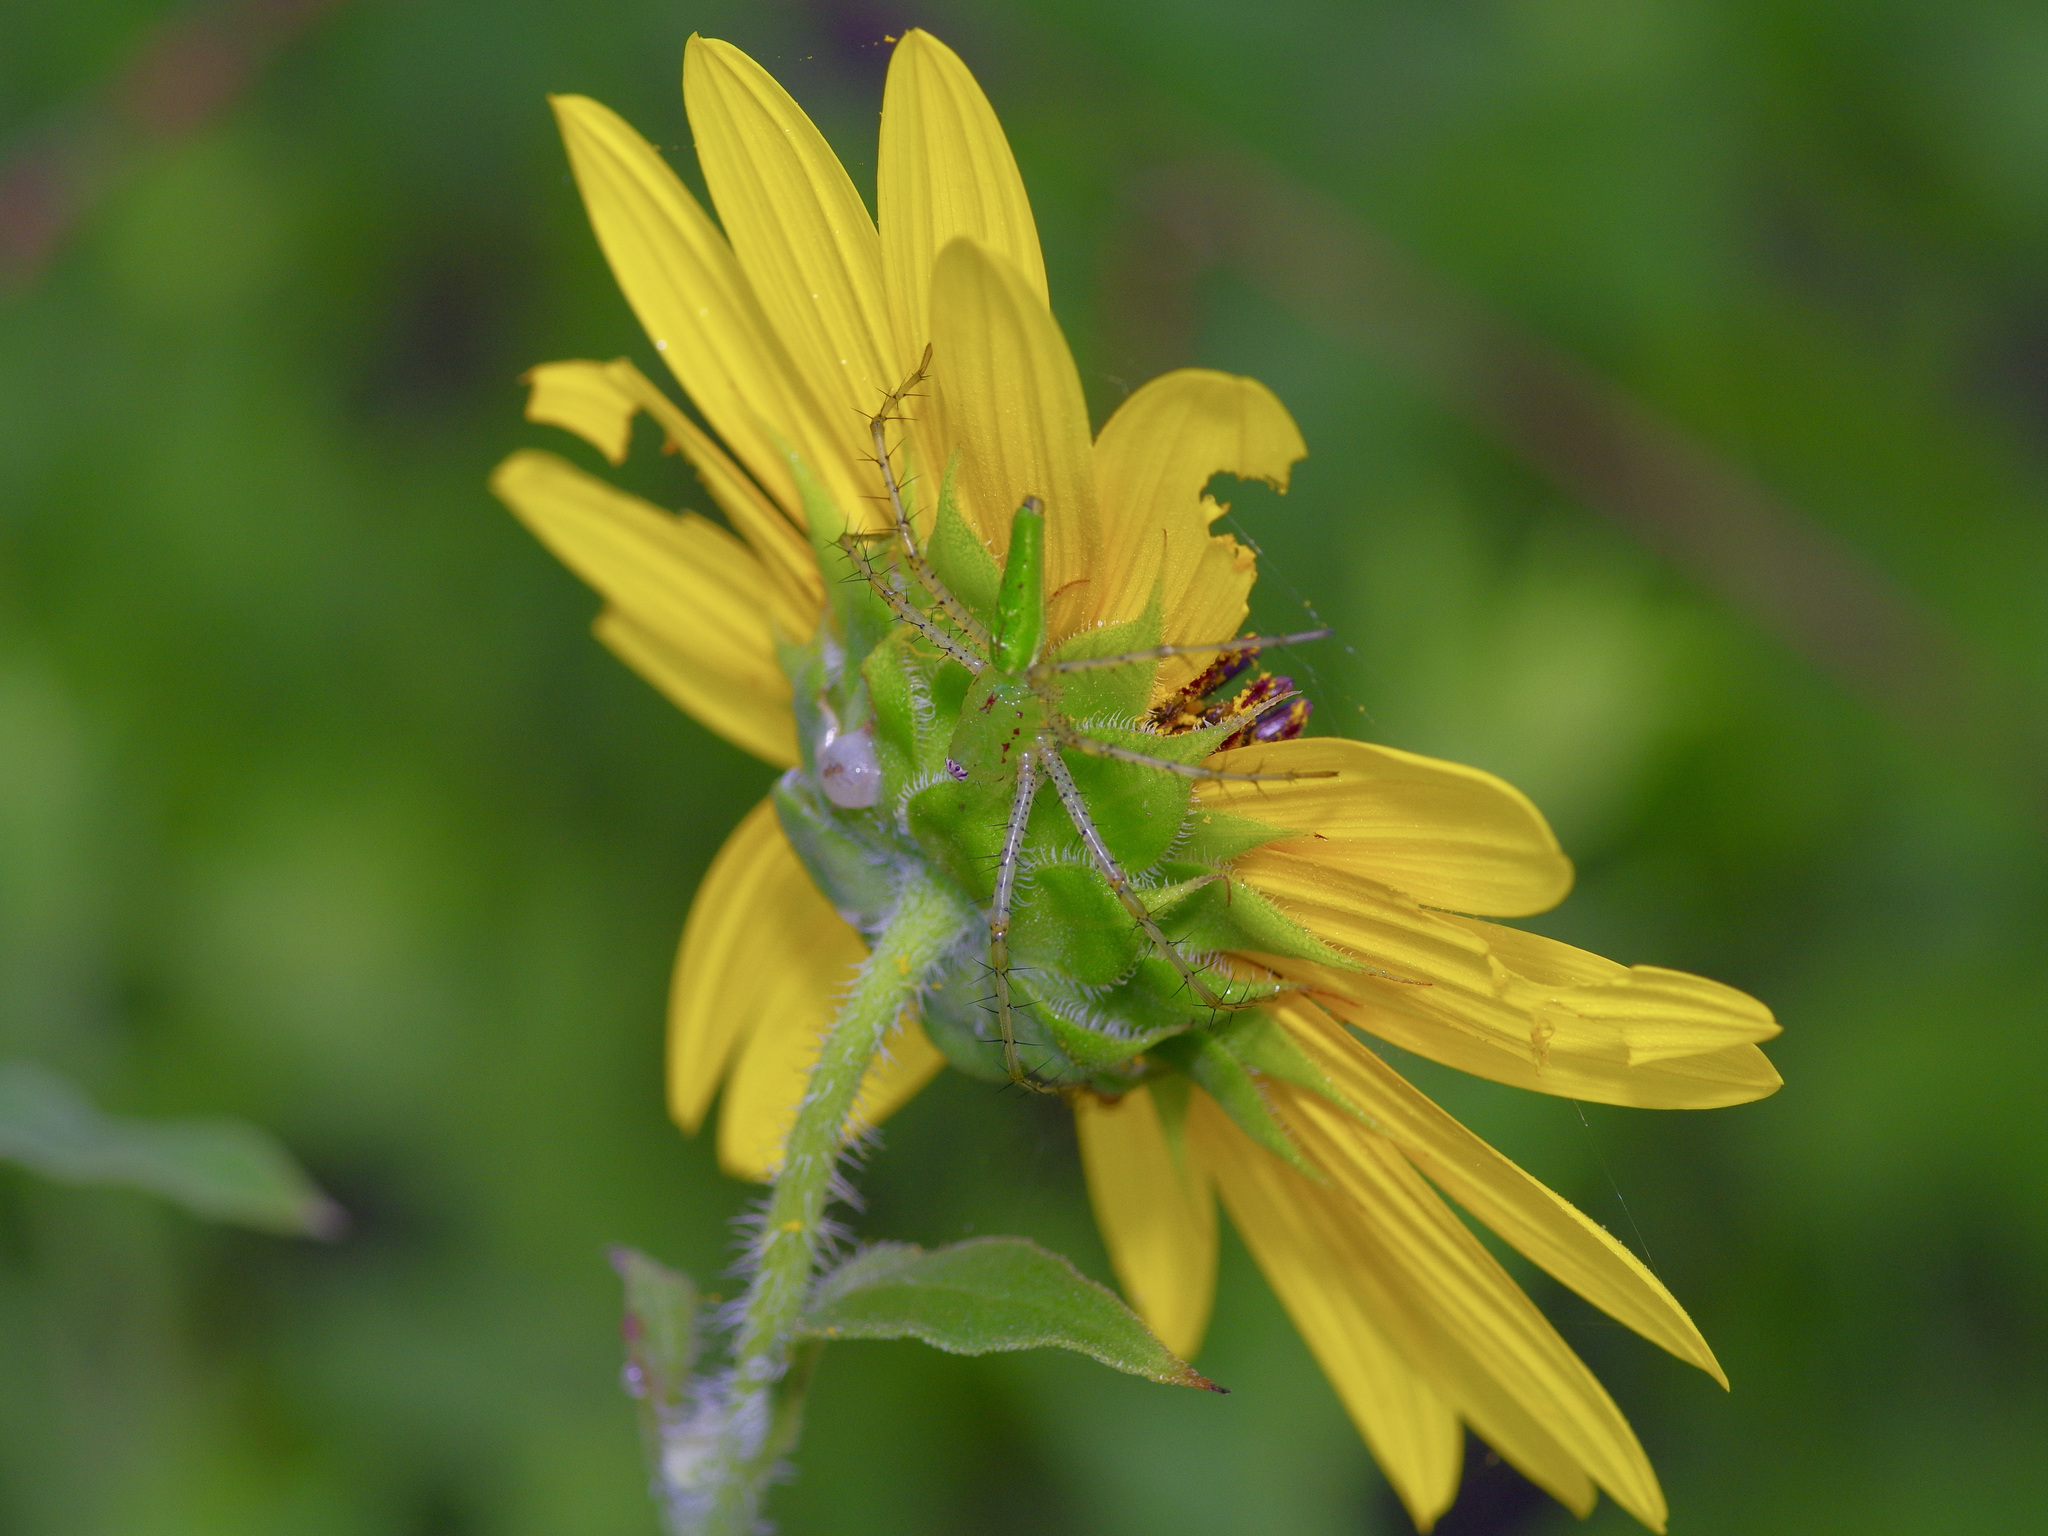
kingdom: Plantae
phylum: Tracheophyta
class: Magnoliopsida
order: Asterales
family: Asteraceae
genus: Helianthus
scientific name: Helianthus annuus
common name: Sunflower
